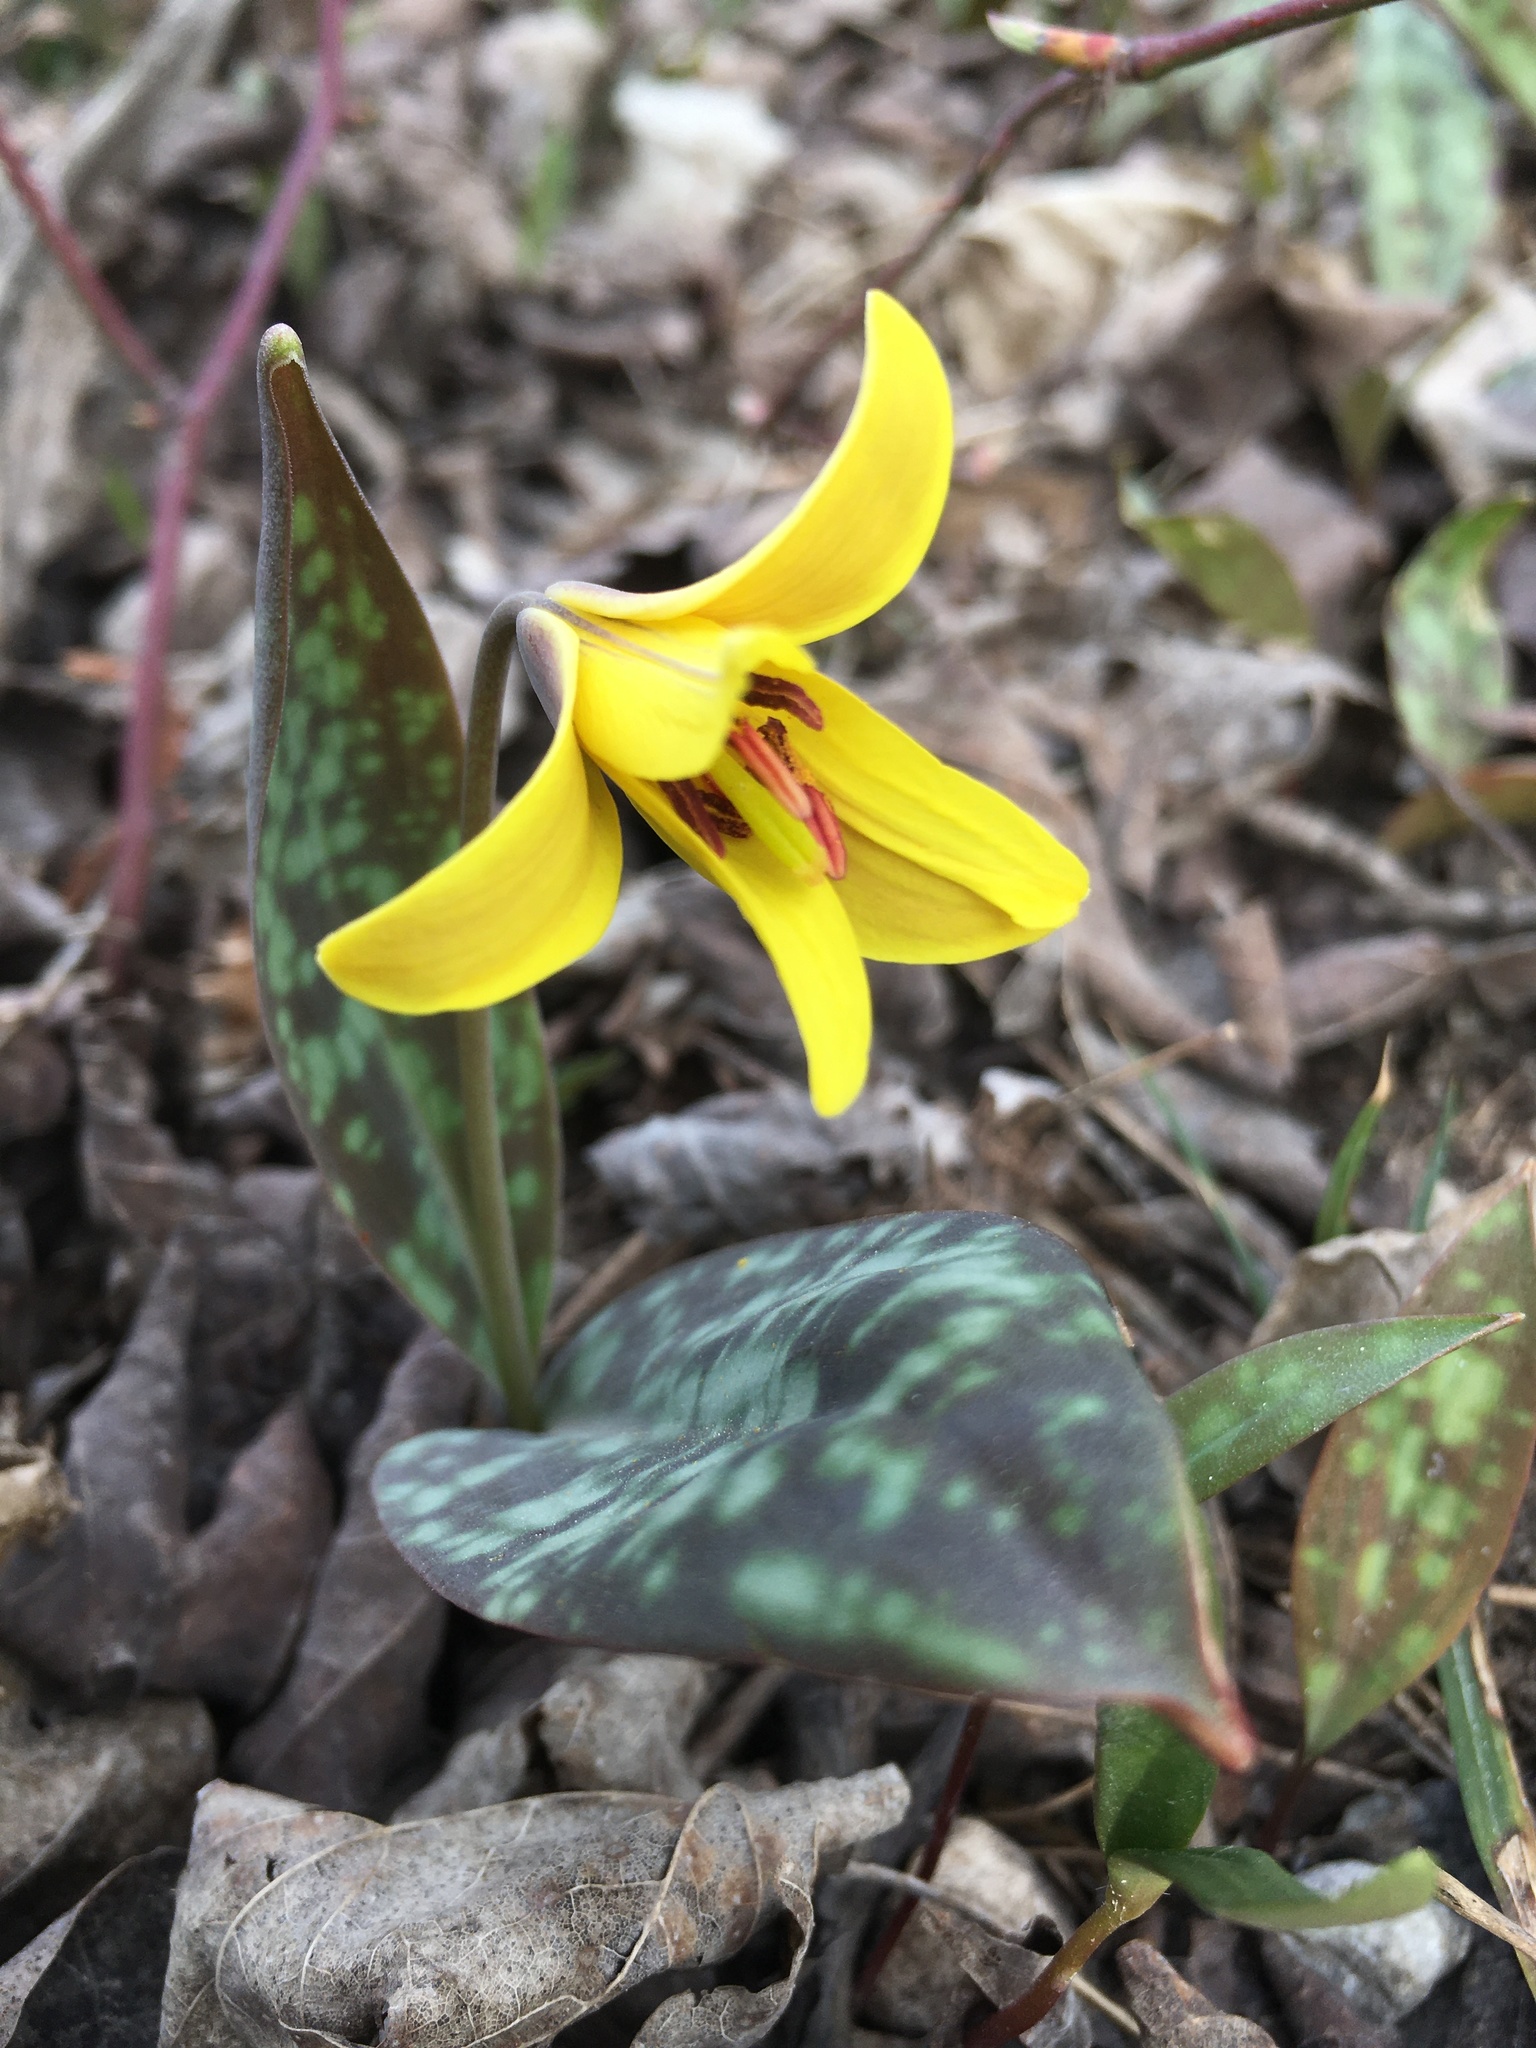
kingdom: Plantae
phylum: Tracheophyta
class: Liliopsida
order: Liliales
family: Liliaceae
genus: Erythronium
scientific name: Erythronium americanum
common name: Yellow adder's-tongue
